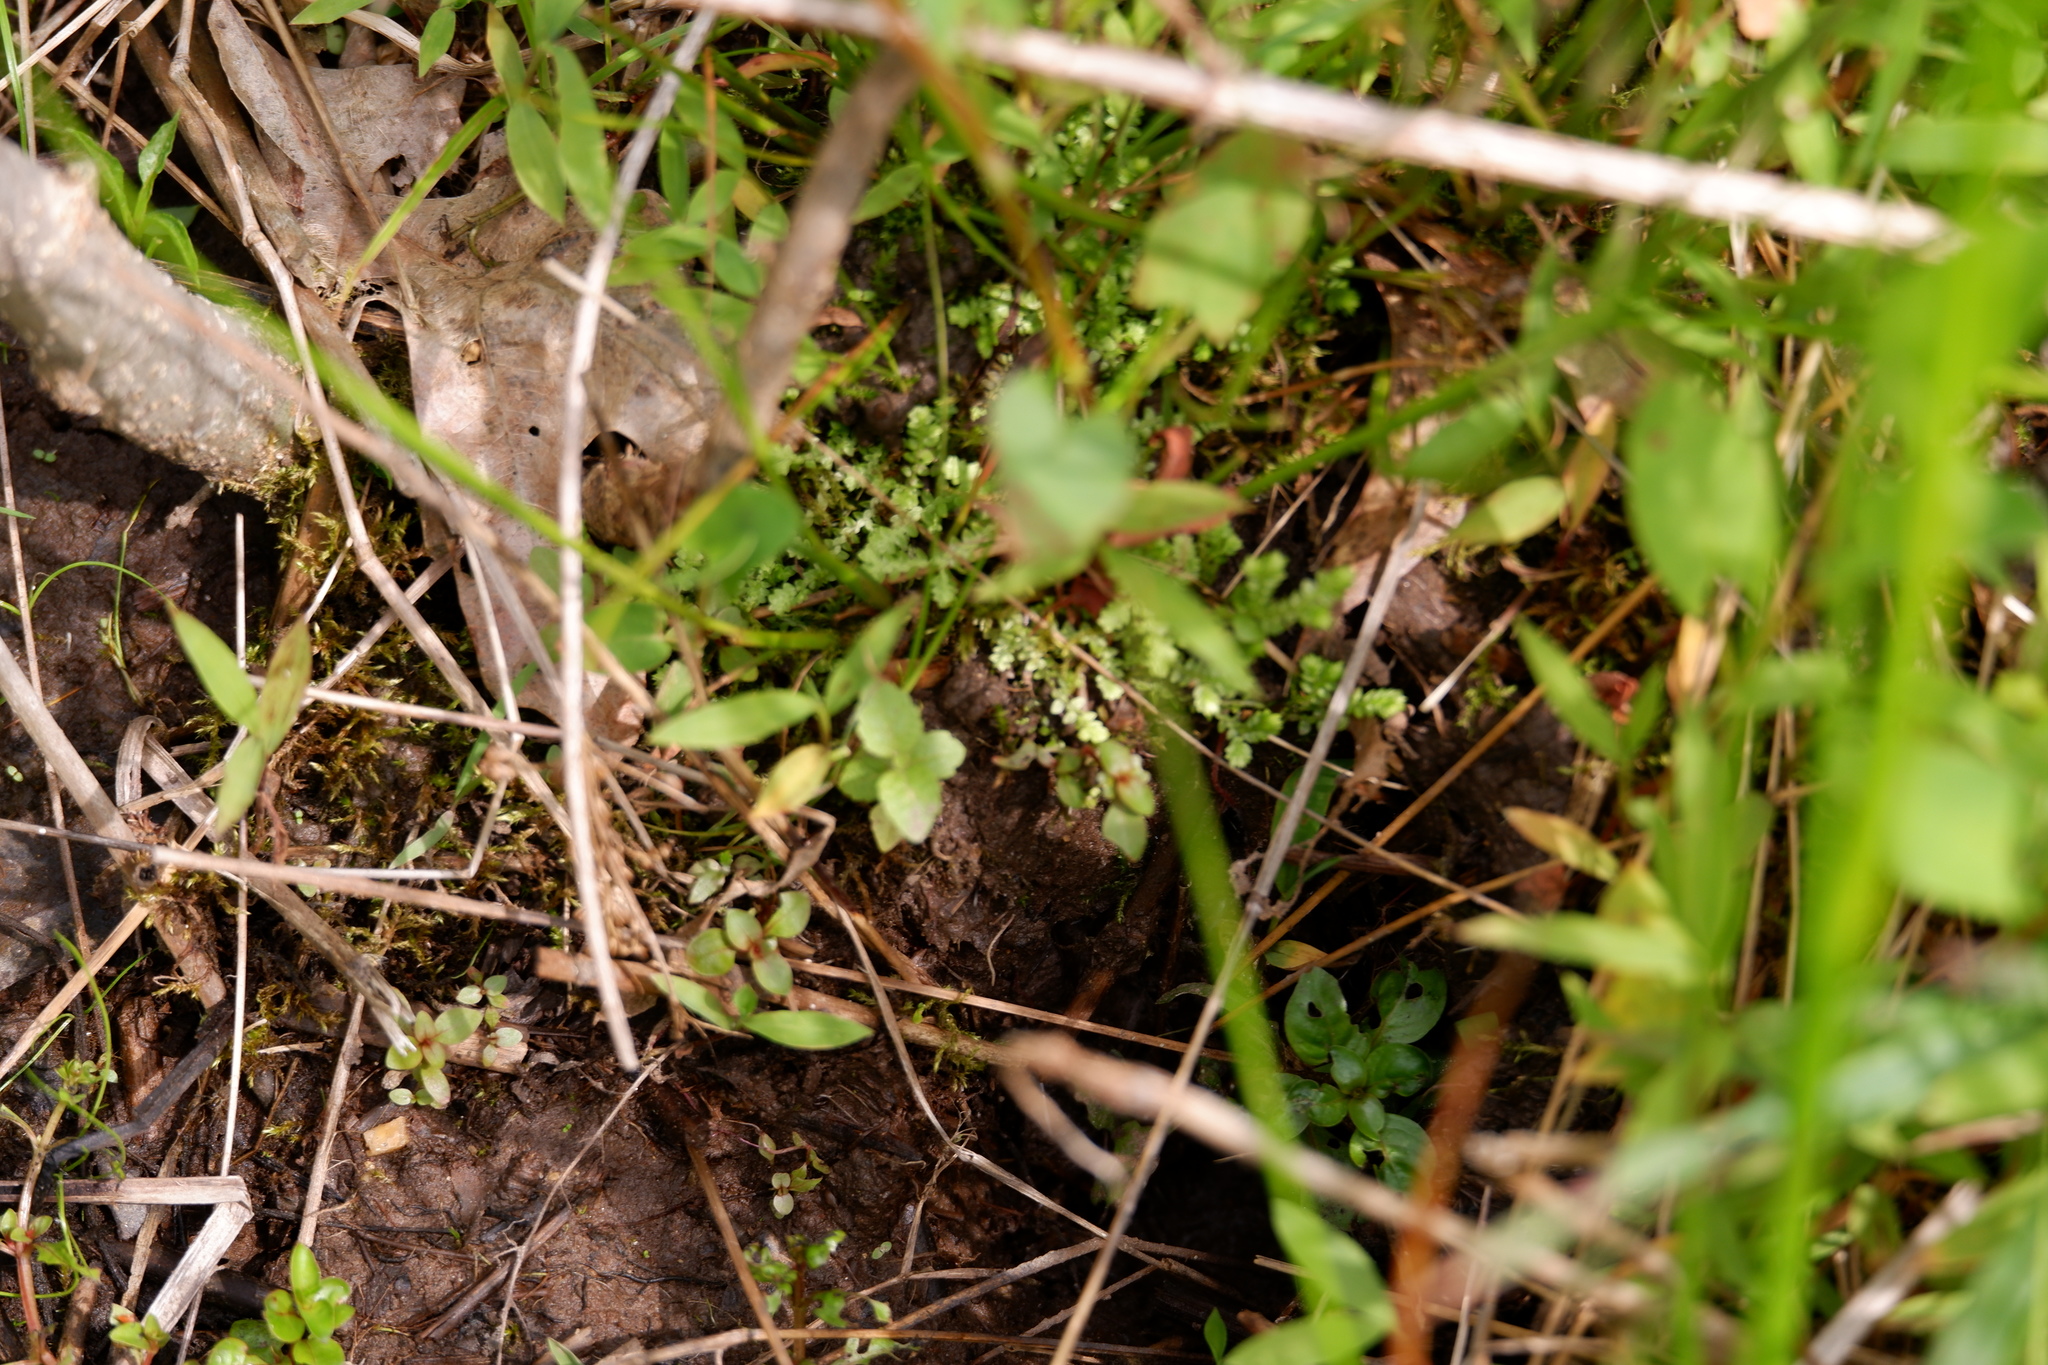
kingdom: Plantae
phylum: Tracheophyta
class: Lycopodiopsida
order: Selaginellales
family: Selaginellaceae
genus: Selaginella
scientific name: Selaginella apoda
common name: Creeping spikemoss
